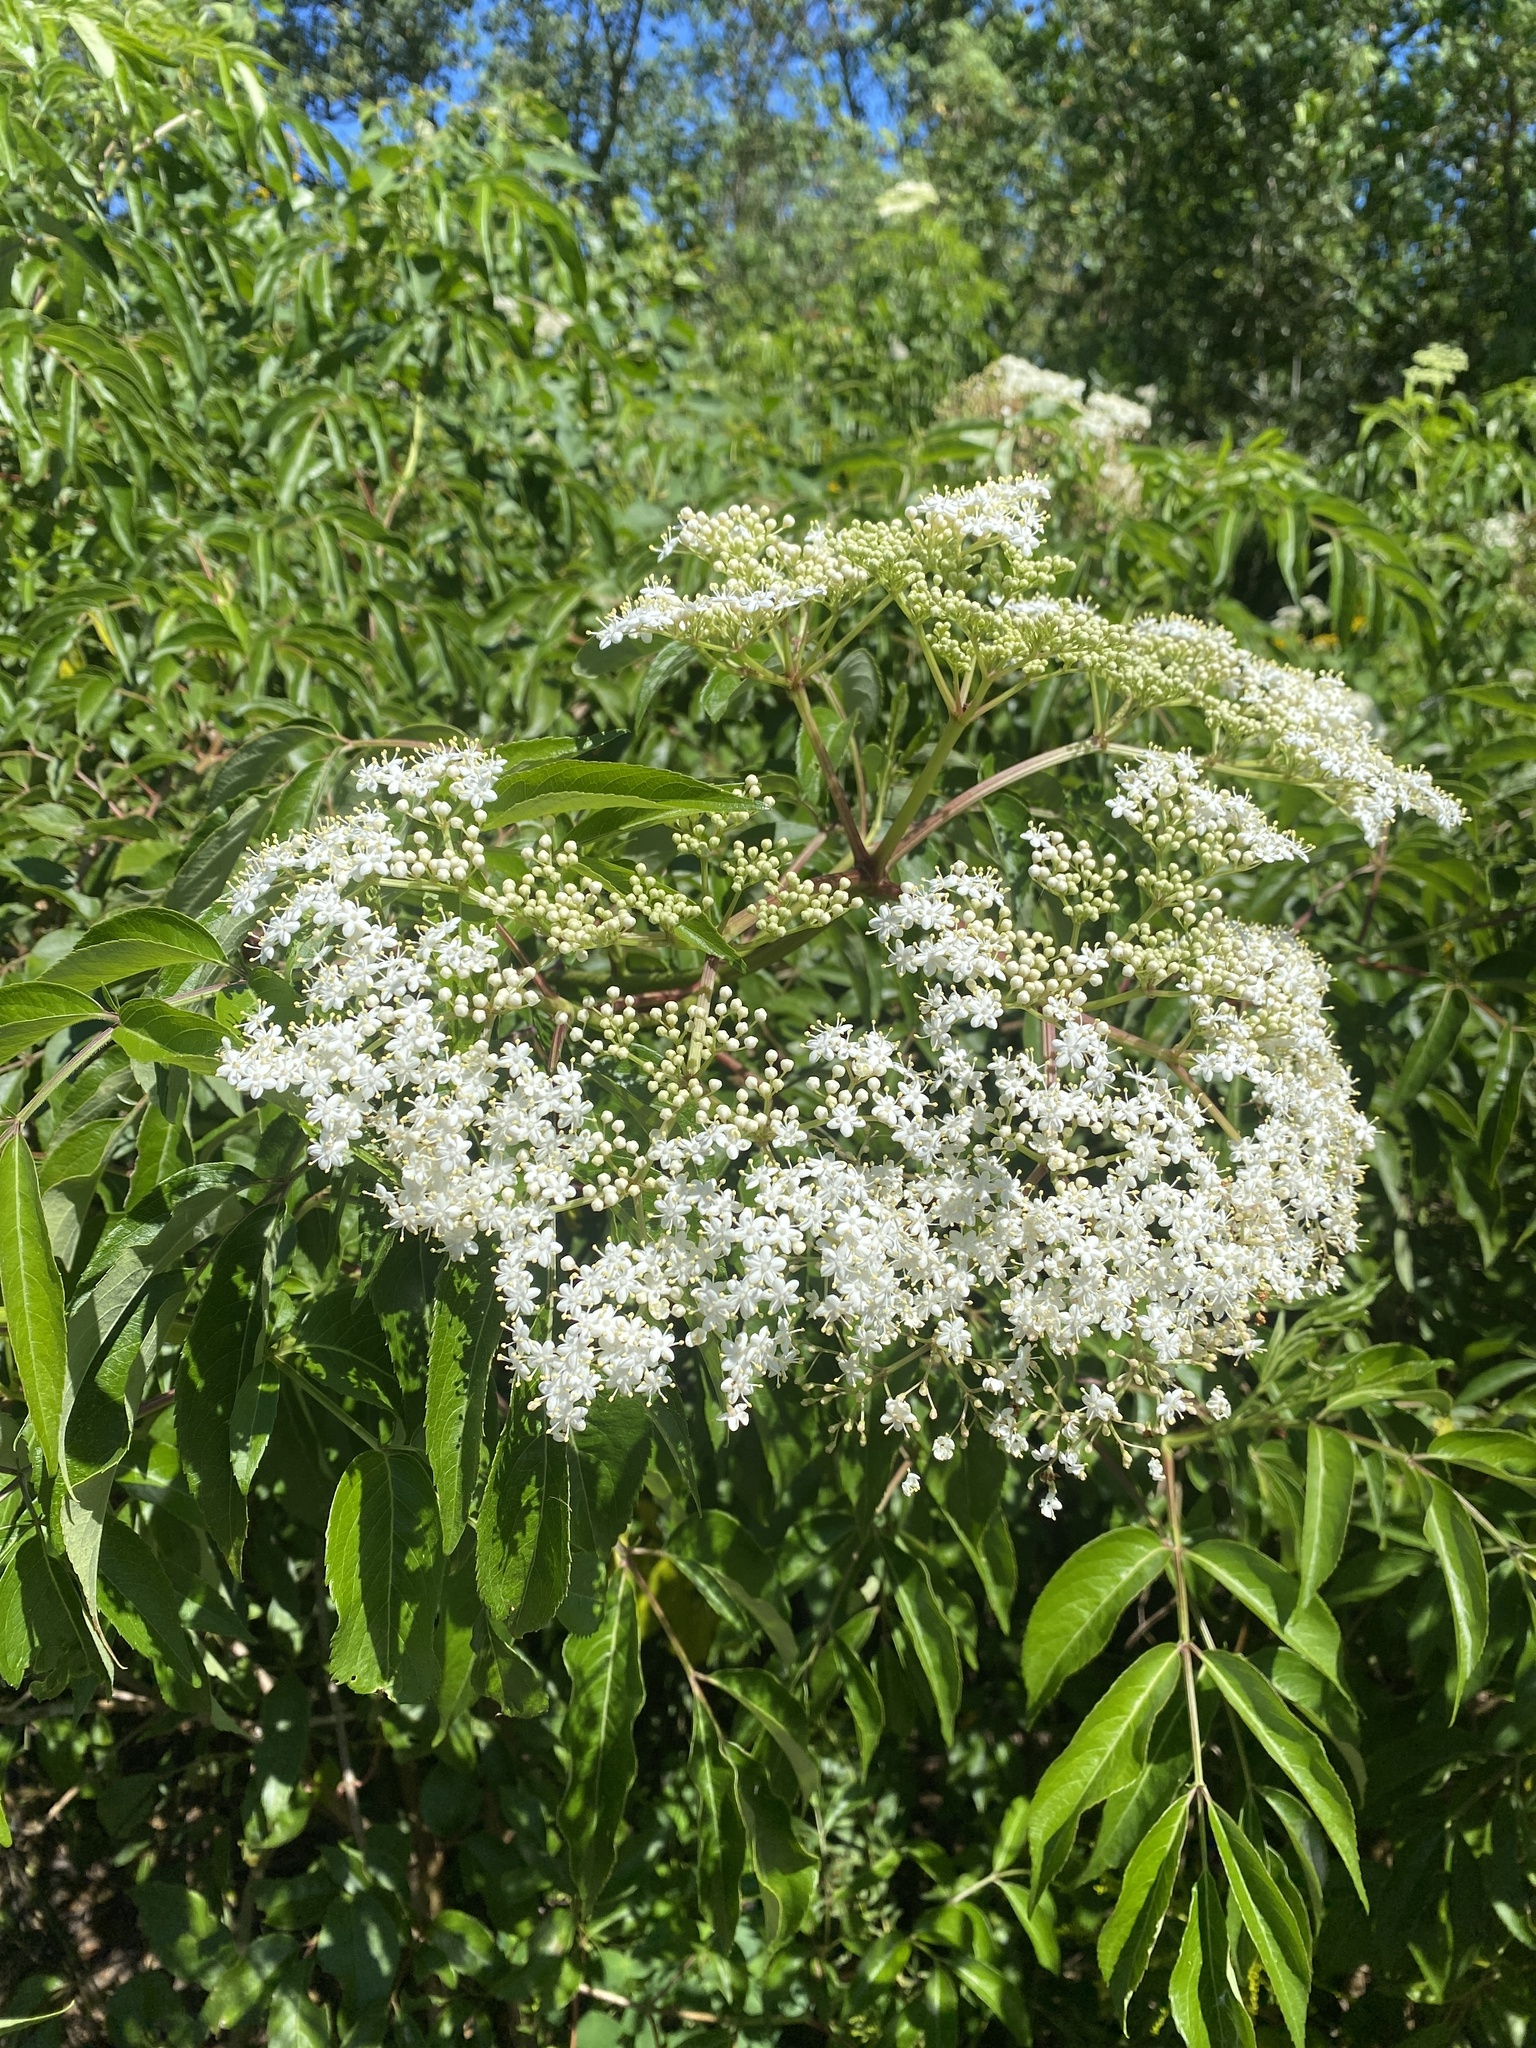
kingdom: Plantae
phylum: Tracheophyta
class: Magnoliopsida
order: Dipsacales
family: Viburnaceae
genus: Sambucus
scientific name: Sambucus canadensis
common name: American elder
